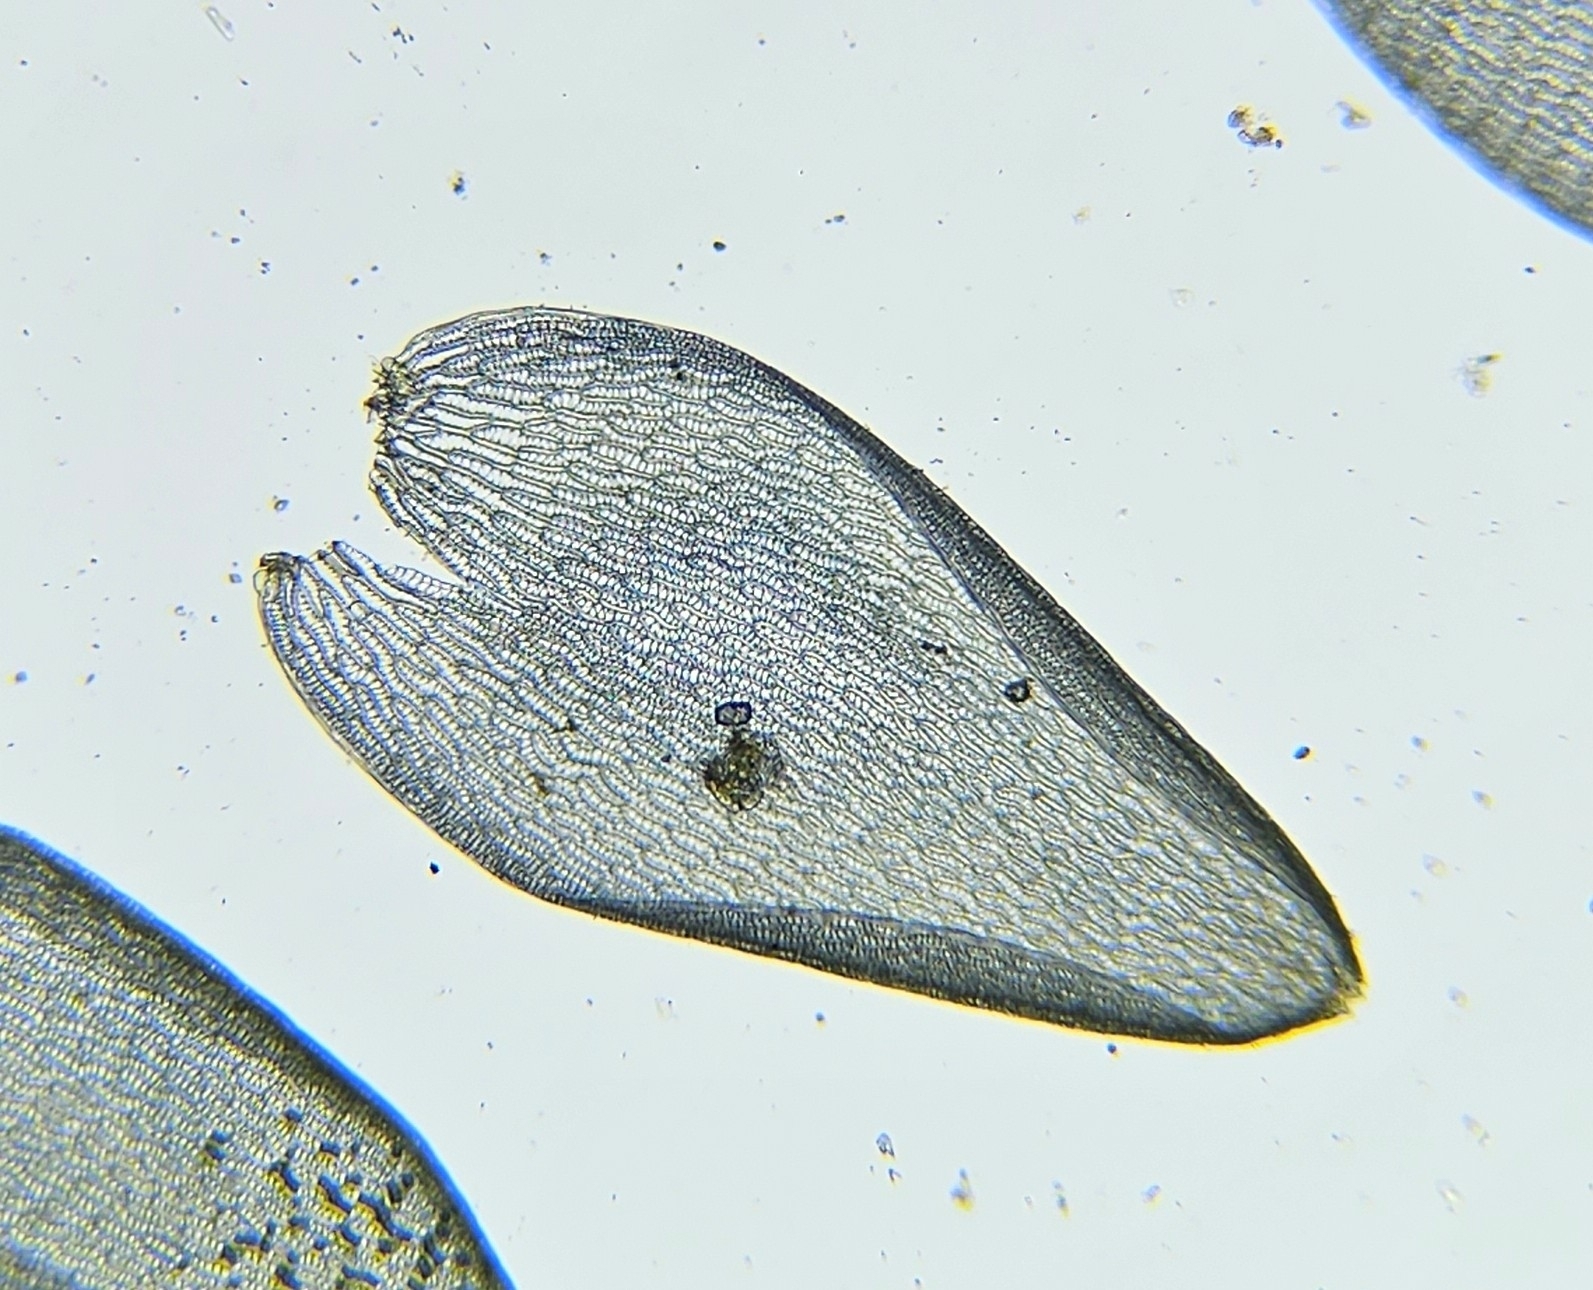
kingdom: Plantae
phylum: Bryophyta
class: Sphagnopsida
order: Sphagnales
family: Sphagnaceae
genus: Sphagnum
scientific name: Sphagnum inundatum
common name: Lesser cow-horn bog-moss
